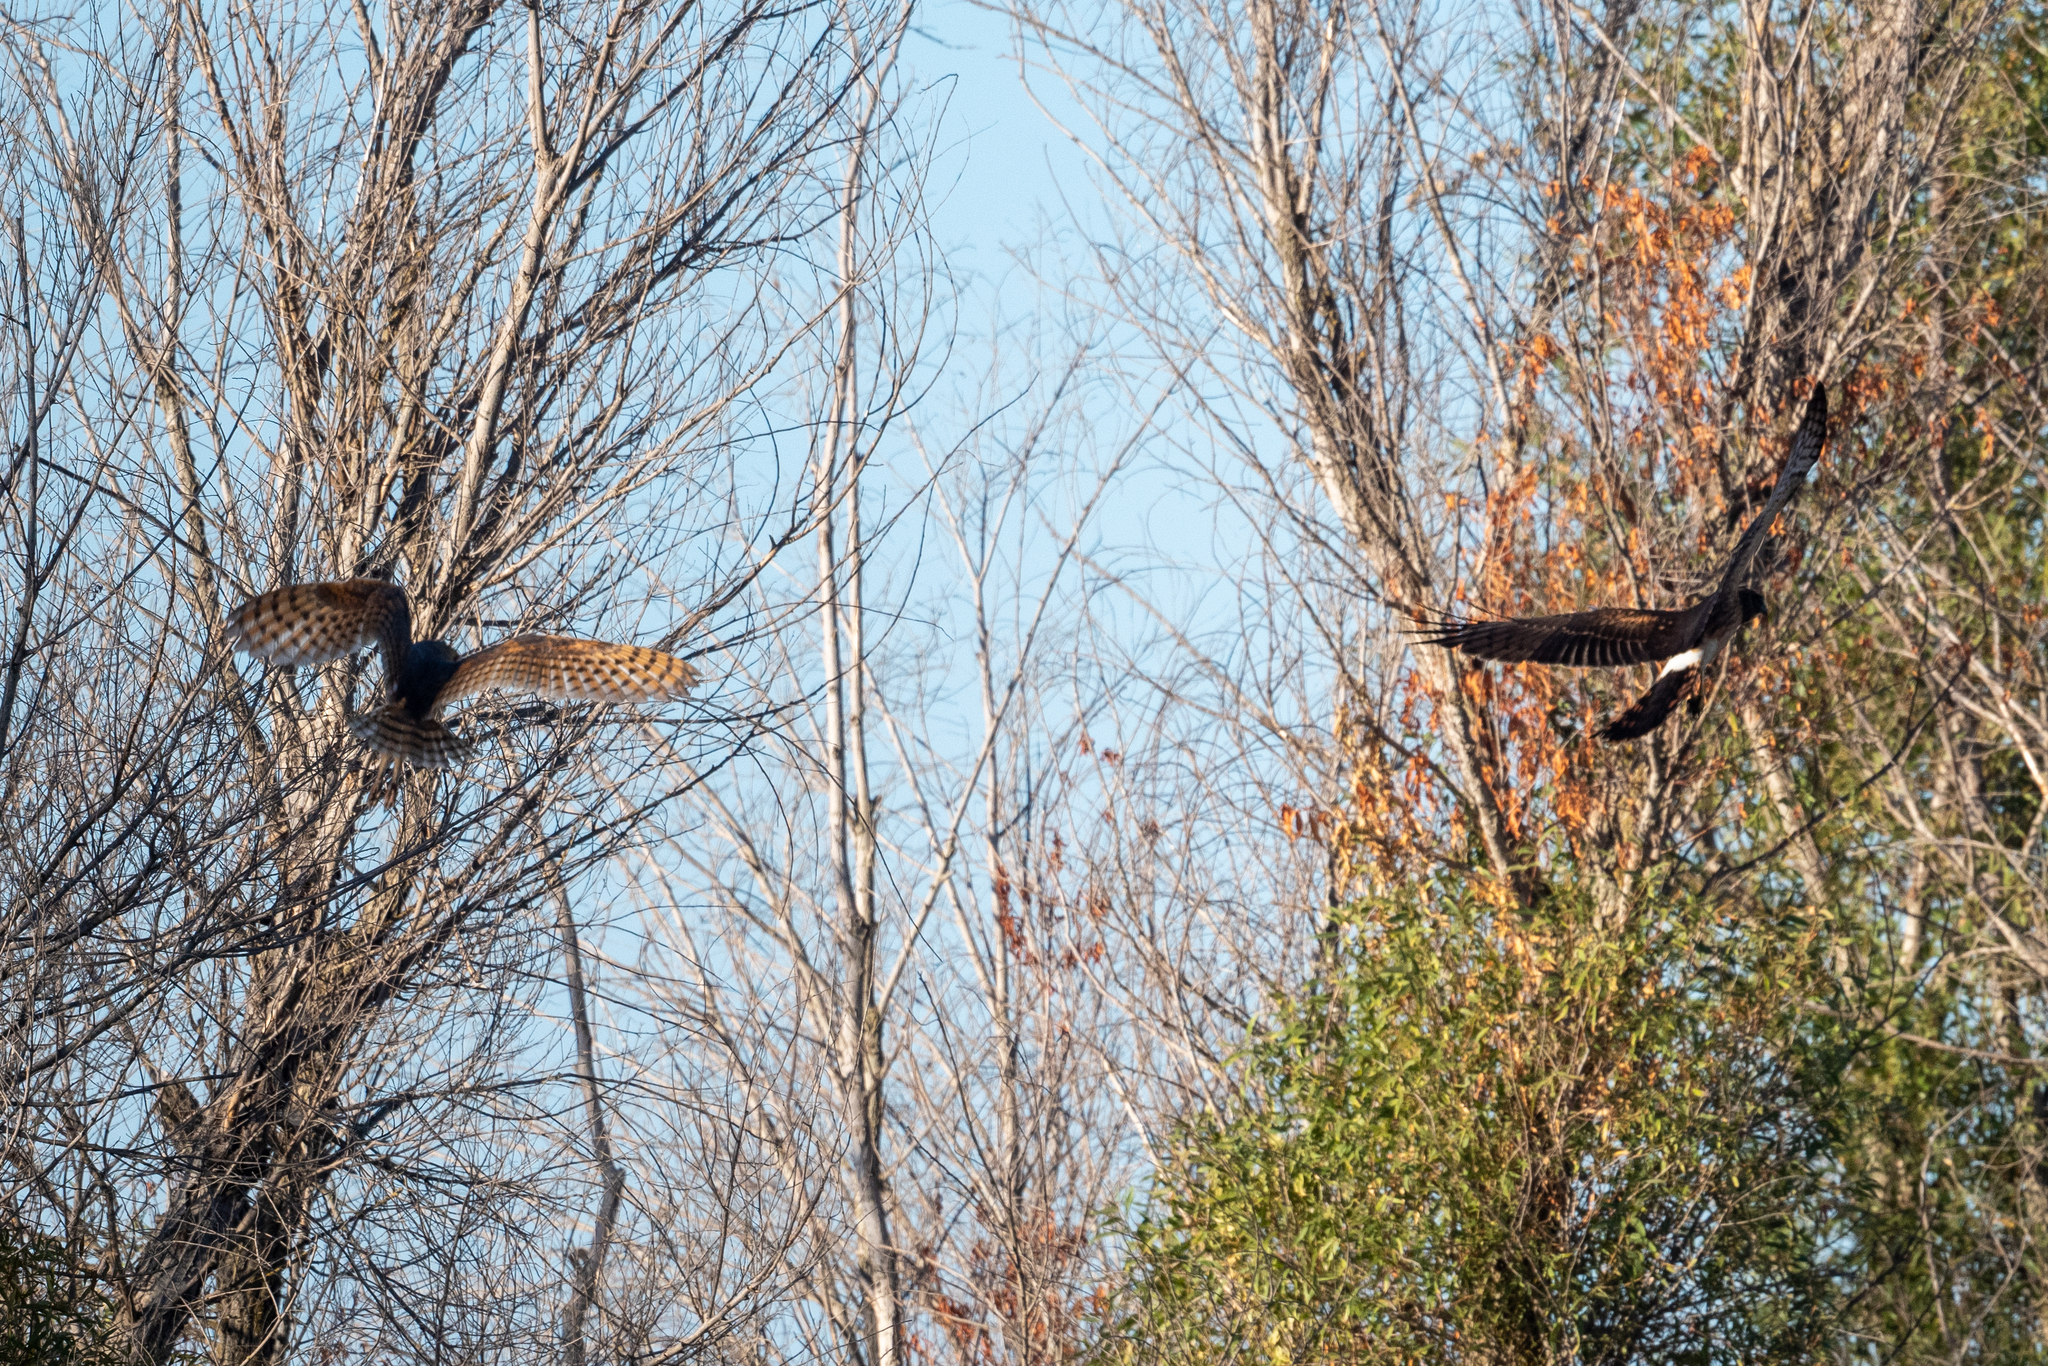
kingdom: Animalia
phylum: Chordata
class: Aves
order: Accipitriformes
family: Accipitridae
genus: Circus
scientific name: Circus cyaneus
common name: Hen harrier
